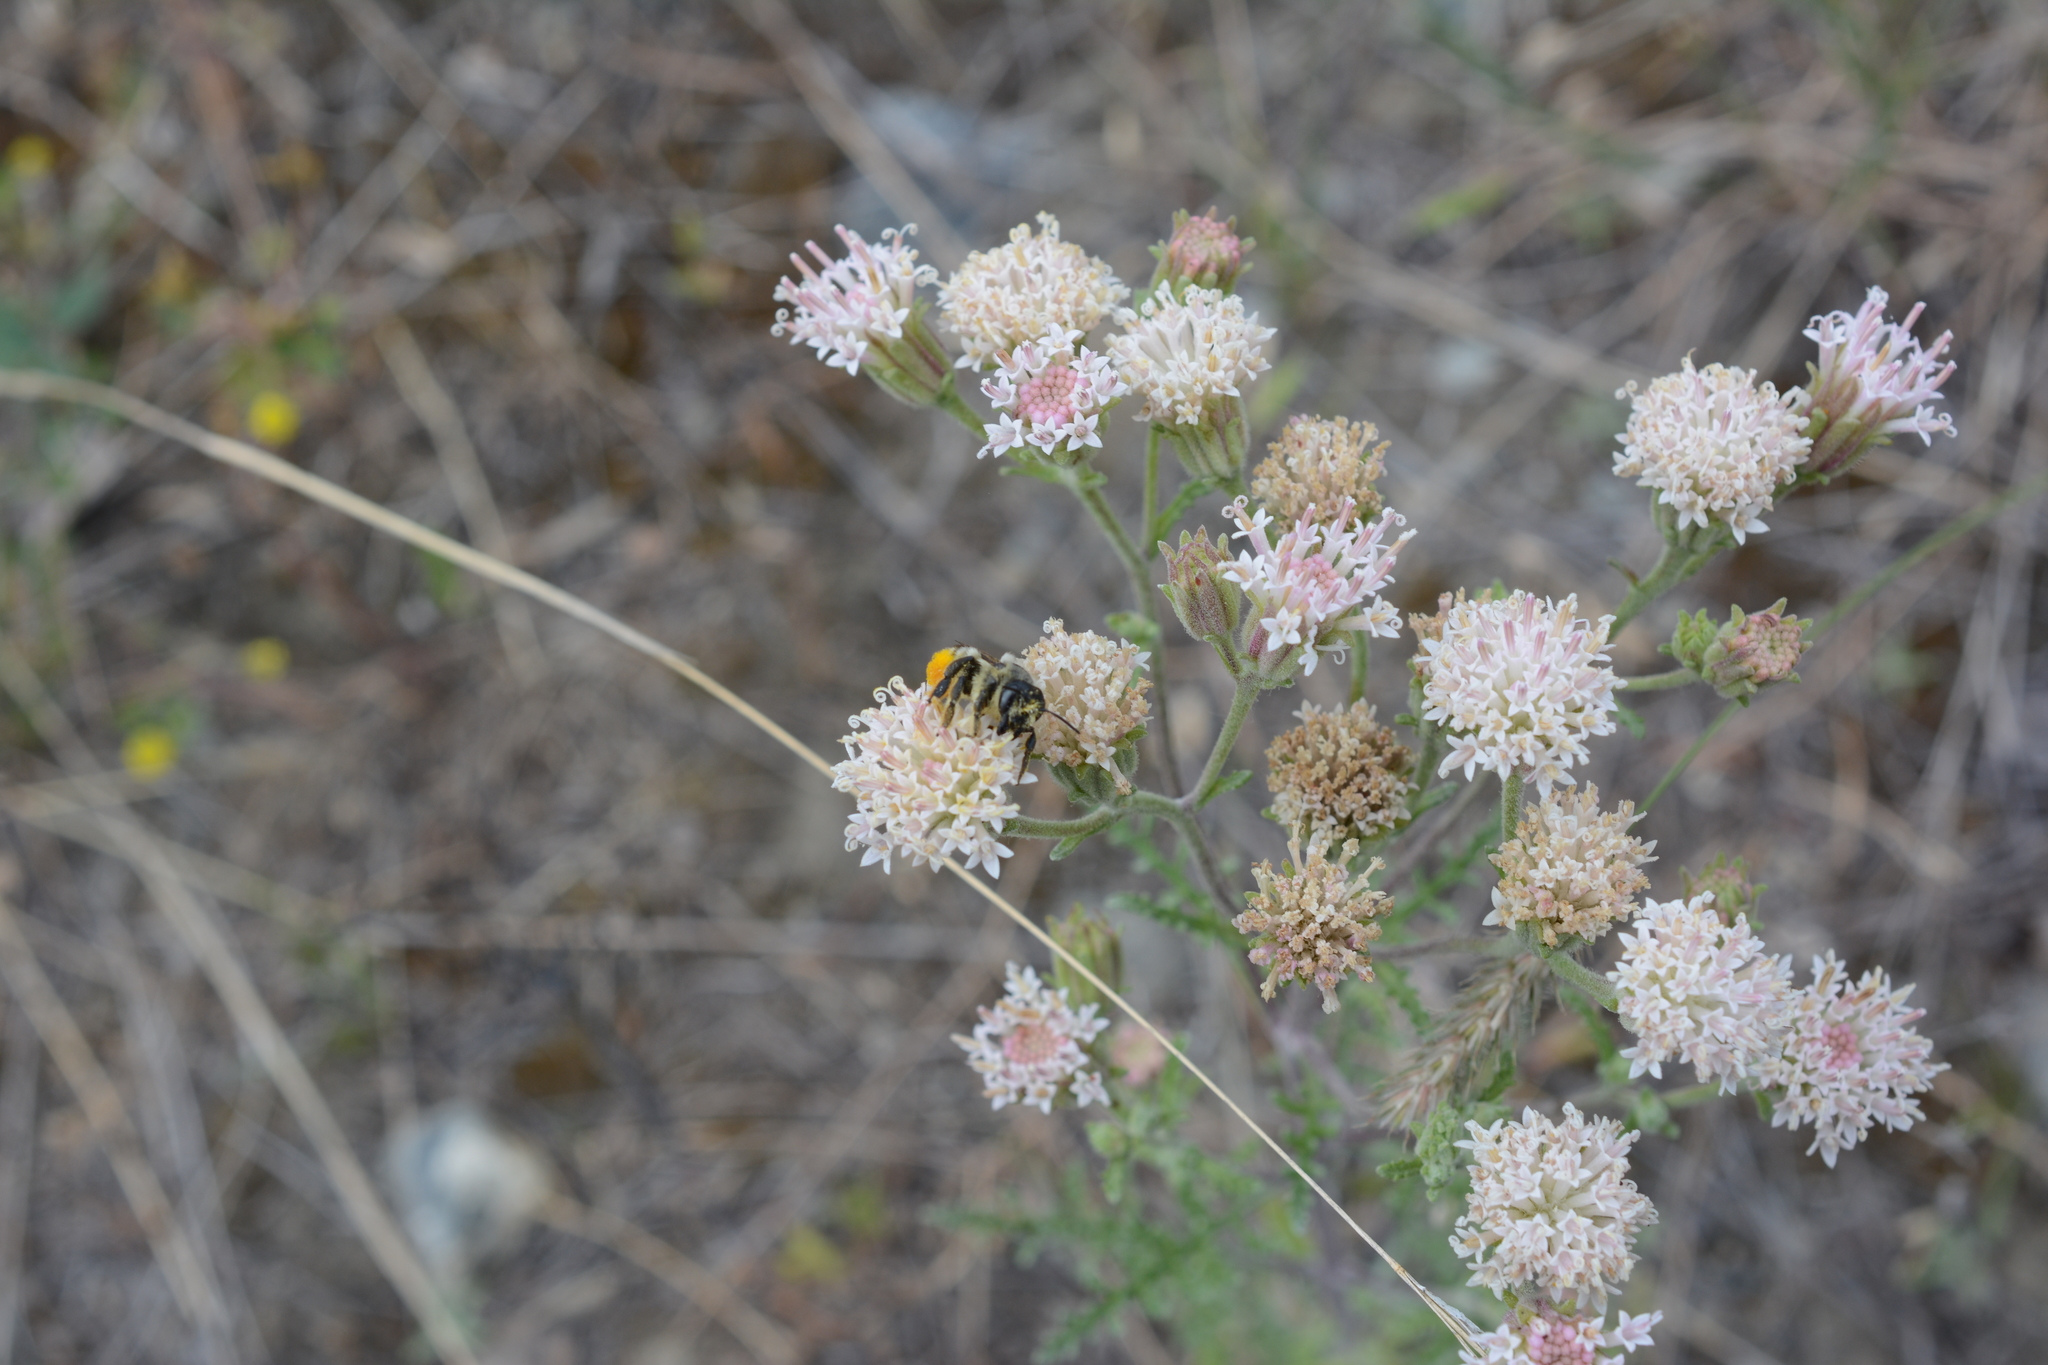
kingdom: Plantae
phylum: Tracheophyta
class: Magnoliopsida
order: Asterales
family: Asteraceae
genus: Chaenactis
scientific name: Chaenactis douglasii
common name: Hoary pincushion
